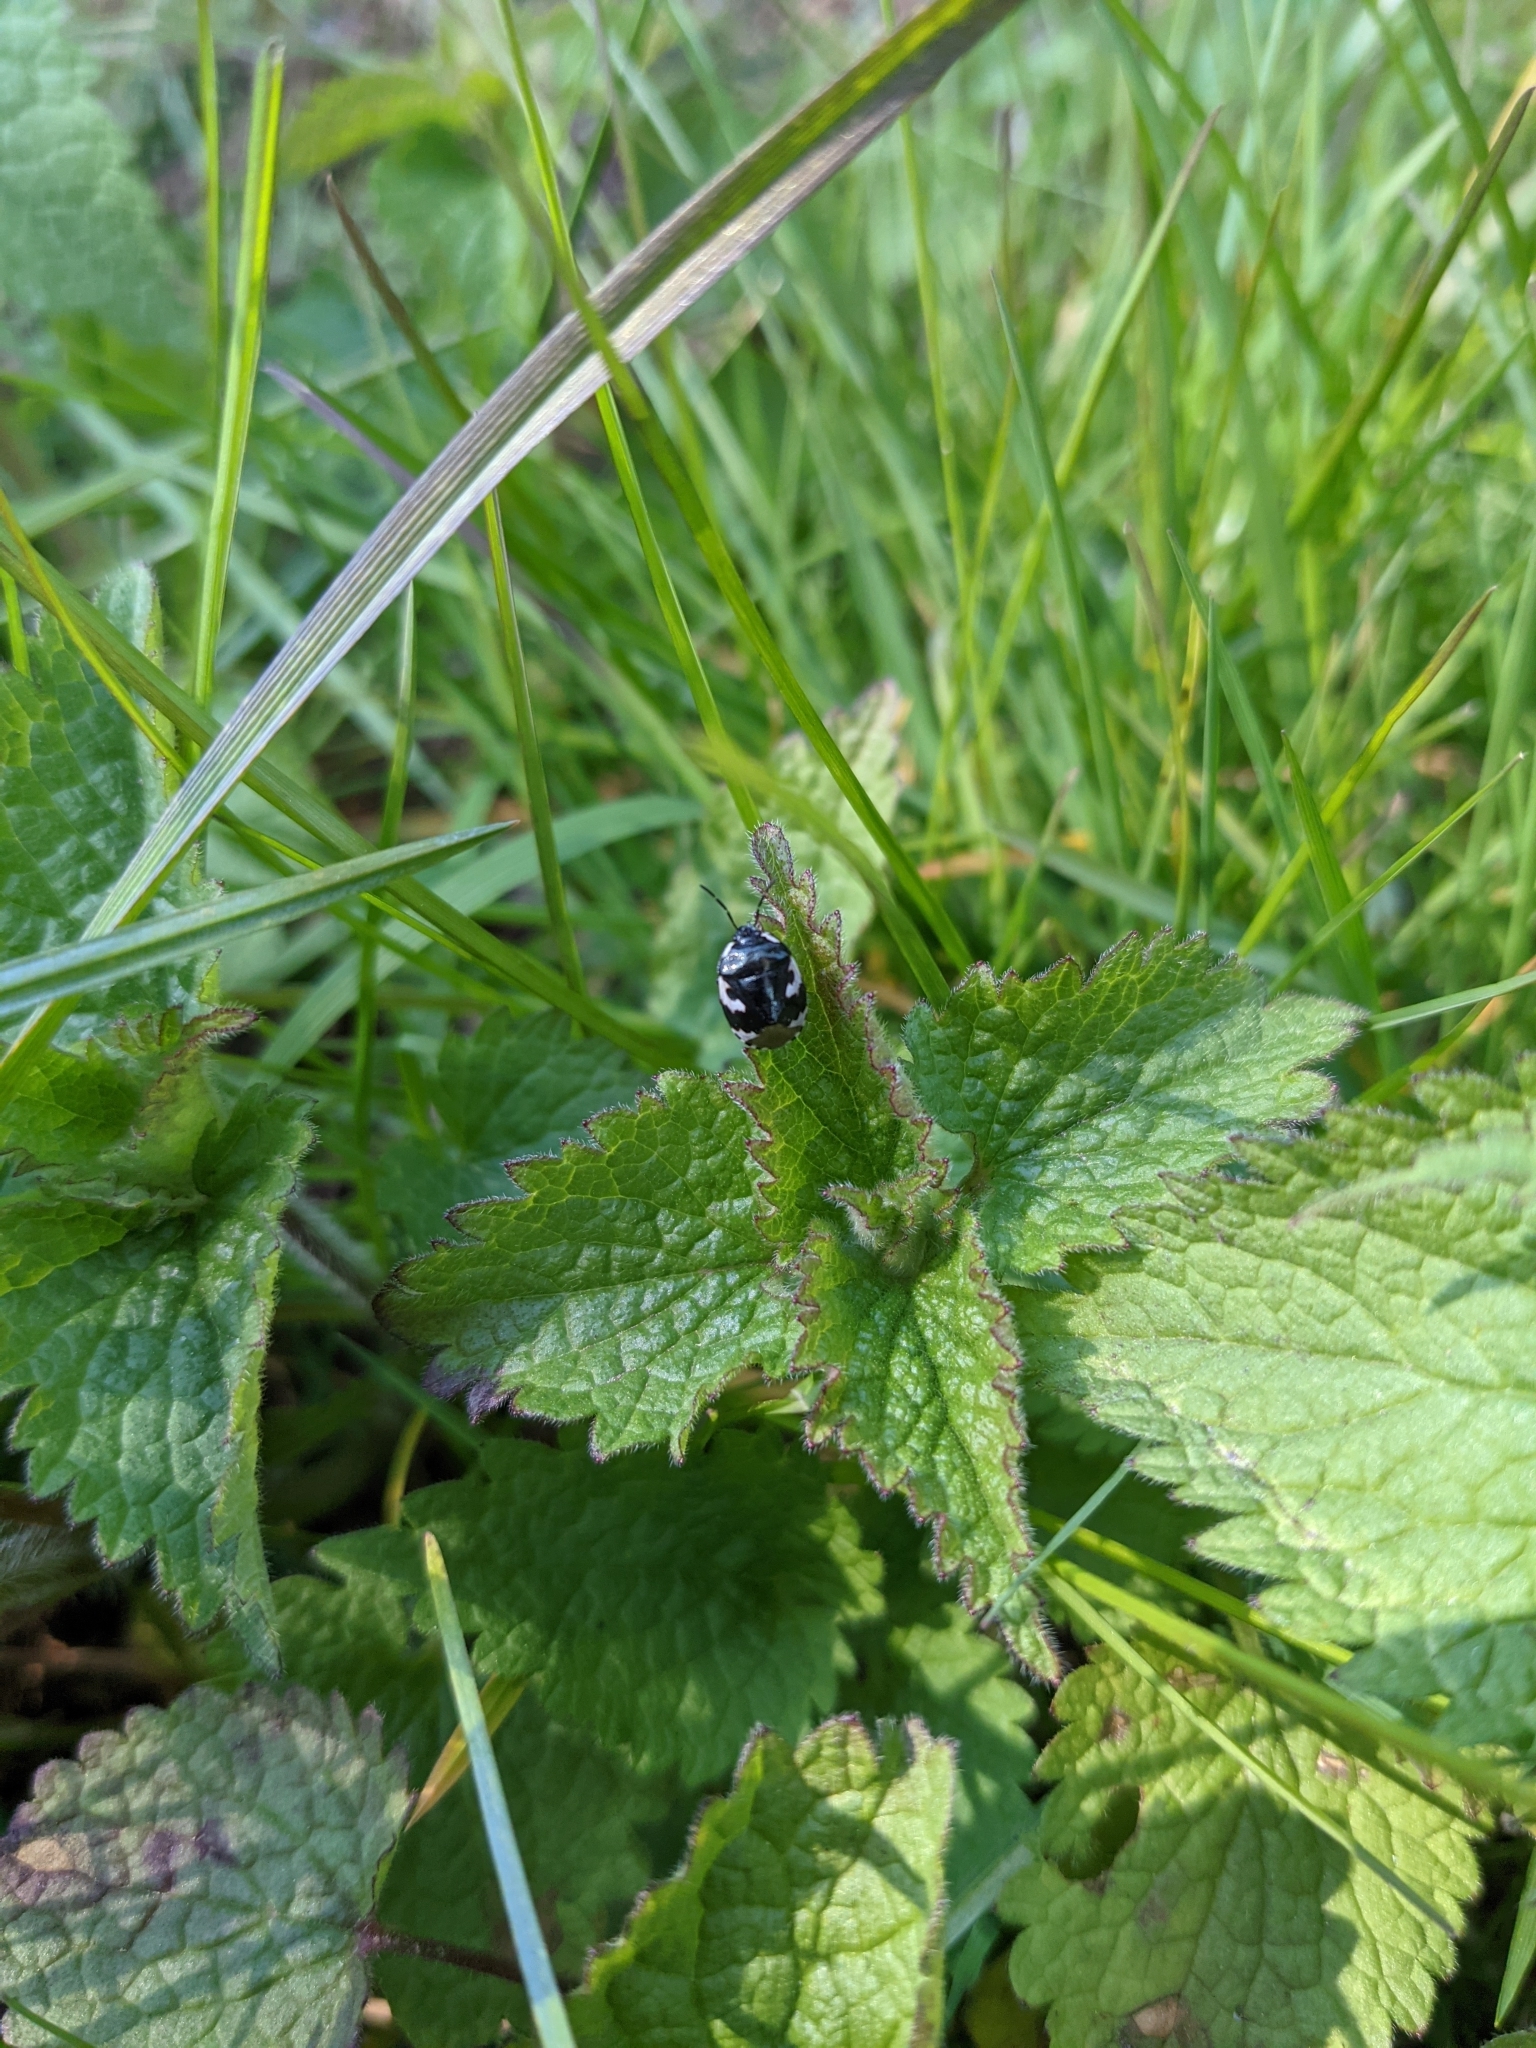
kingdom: Animalia
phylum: Arthropoda
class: Insecta
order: Hemiptera
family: Cydnidae
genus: Tritomegas
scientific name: Tritomegas bicolor
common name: Pied shieldbug
